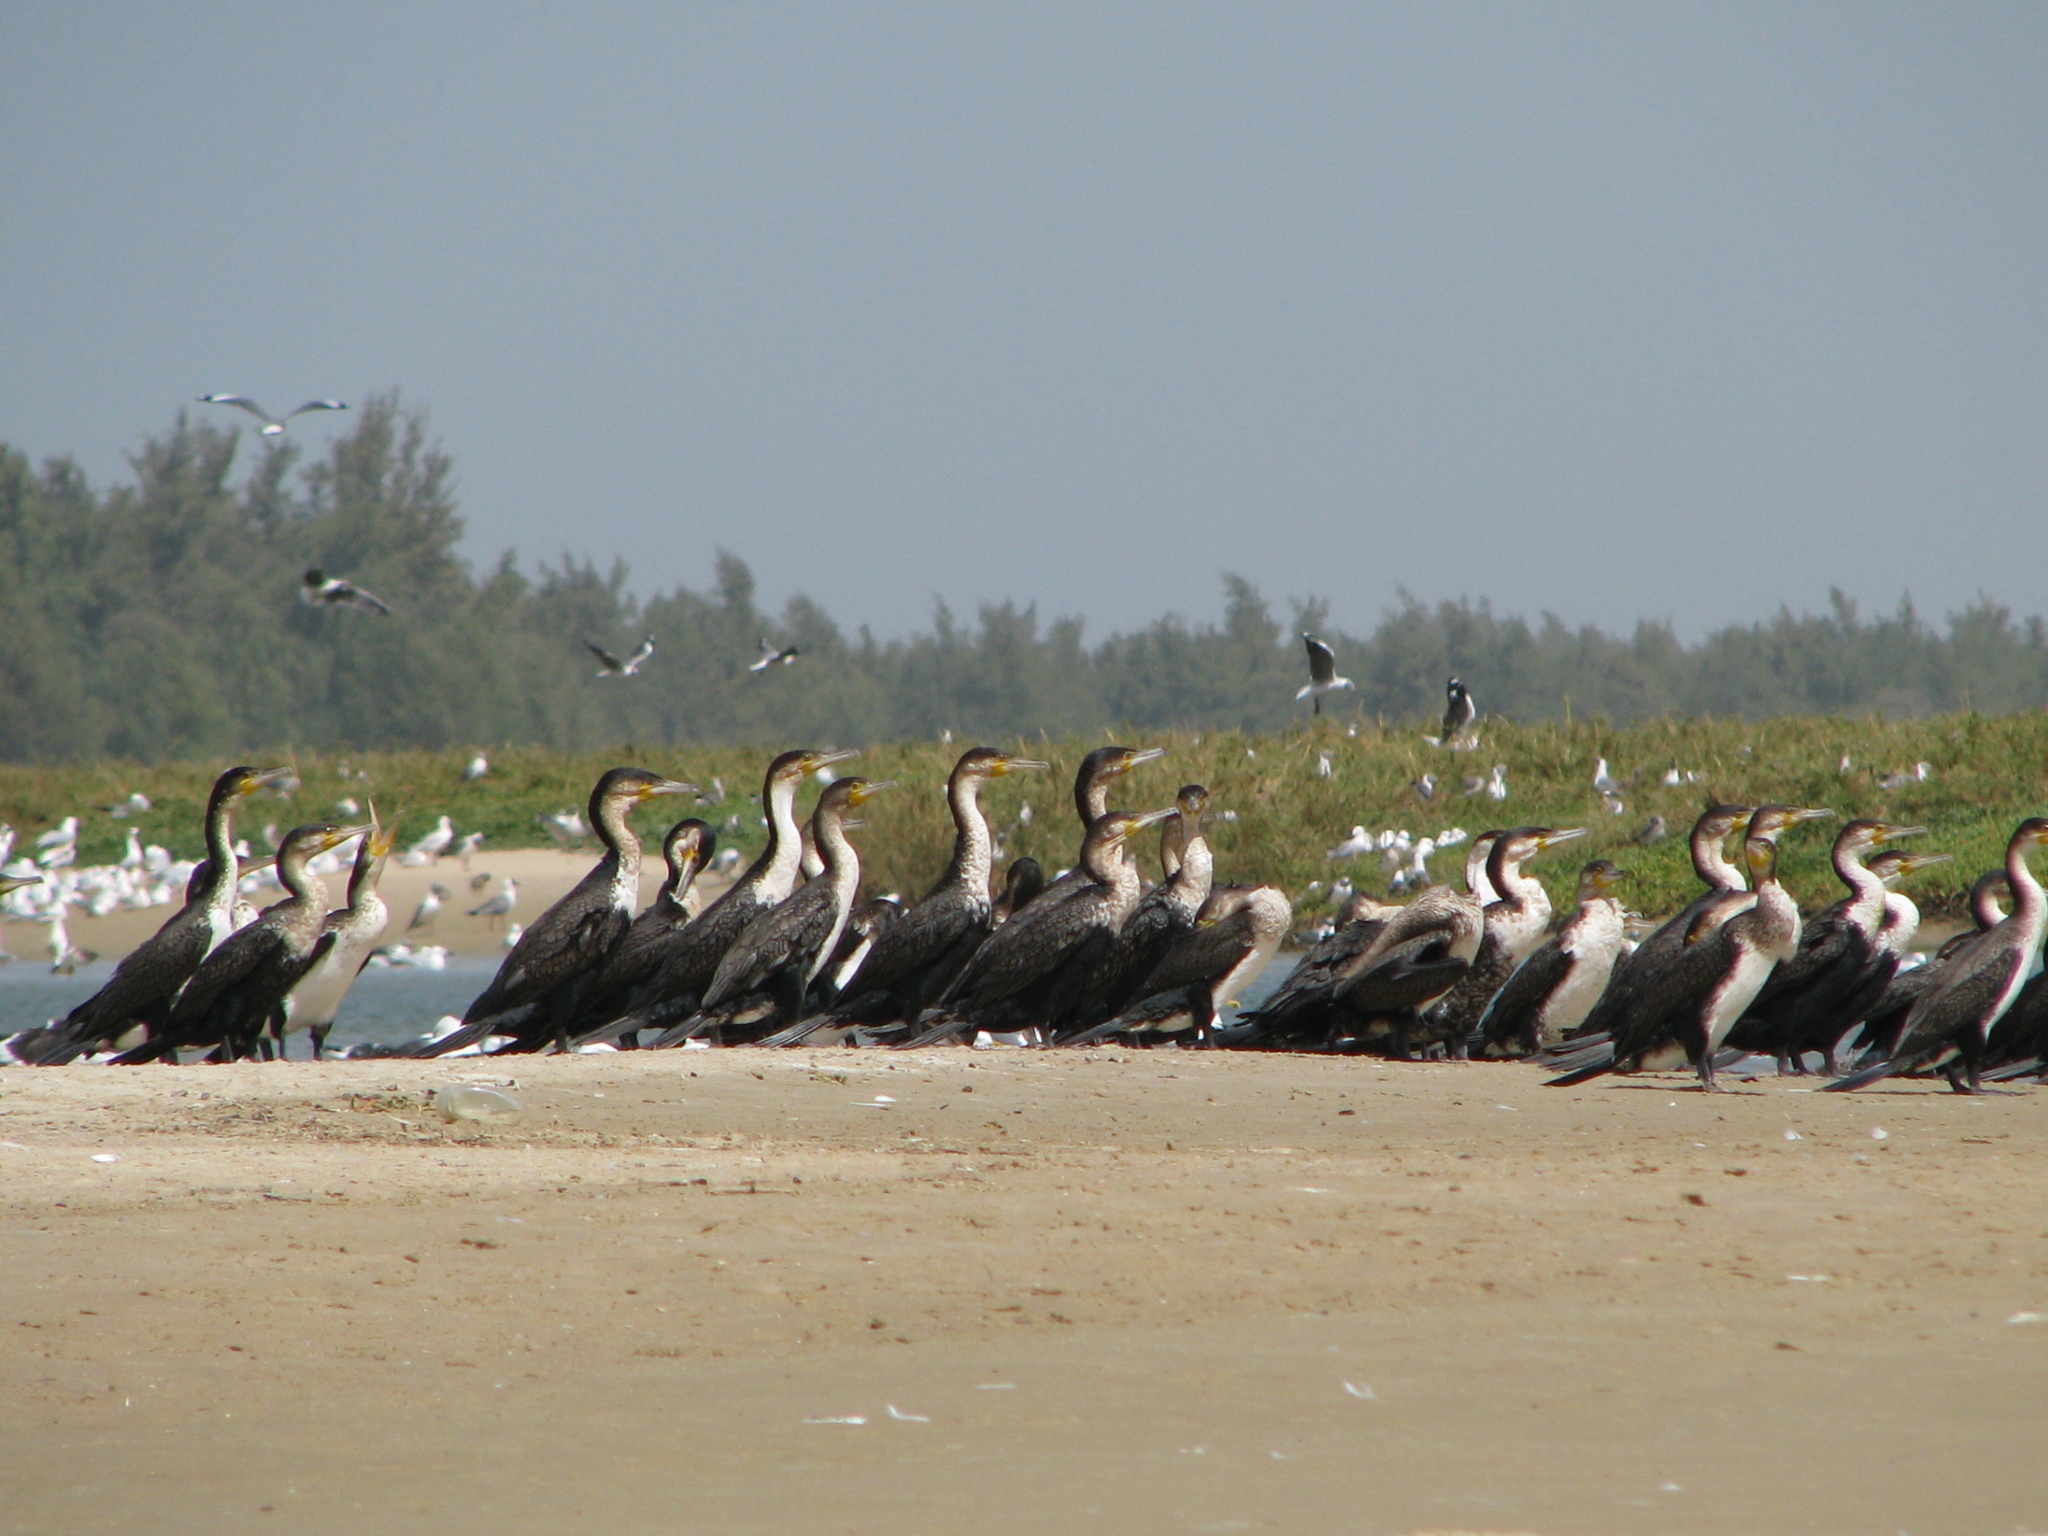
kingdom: Animalia
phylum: Chordata
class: Aves
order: Suliformes
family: Phalacrocoracidae
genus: Phalacrocorax
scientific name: Phalacrocorax carbo
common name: Great cormorant
